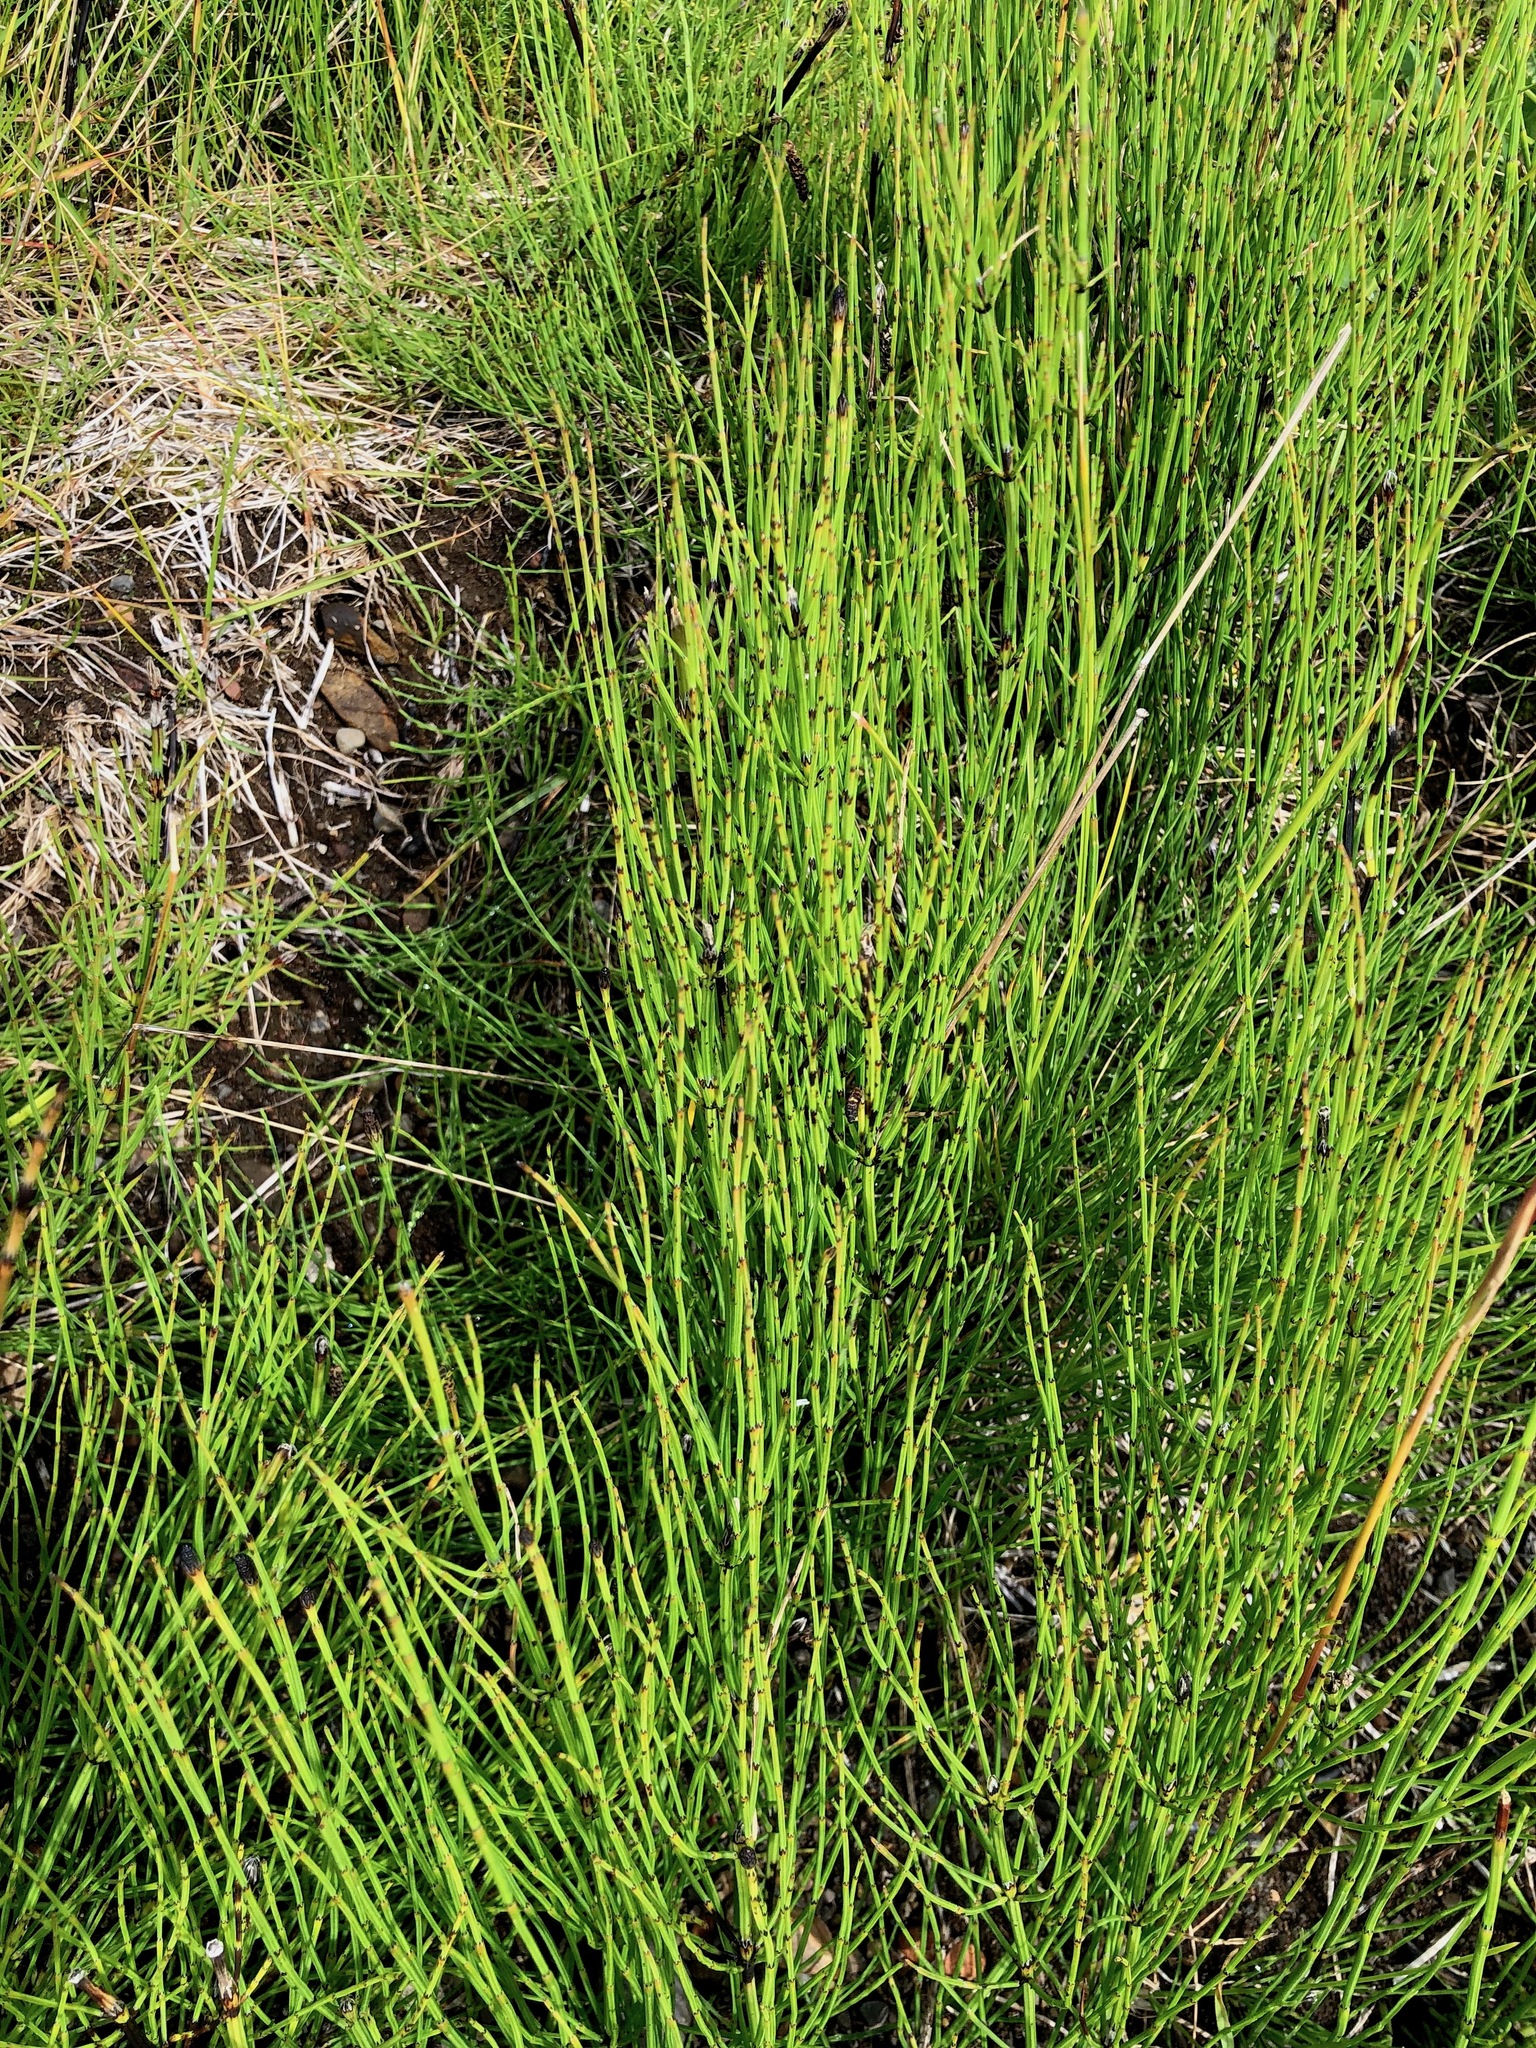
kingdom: Plantae
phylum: Tracheophyta
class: Polypodiopsida
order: Equisetales
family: Equisetaceae
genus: Equisetum
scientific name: Equisetum palustre
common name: Marsh horsetail
